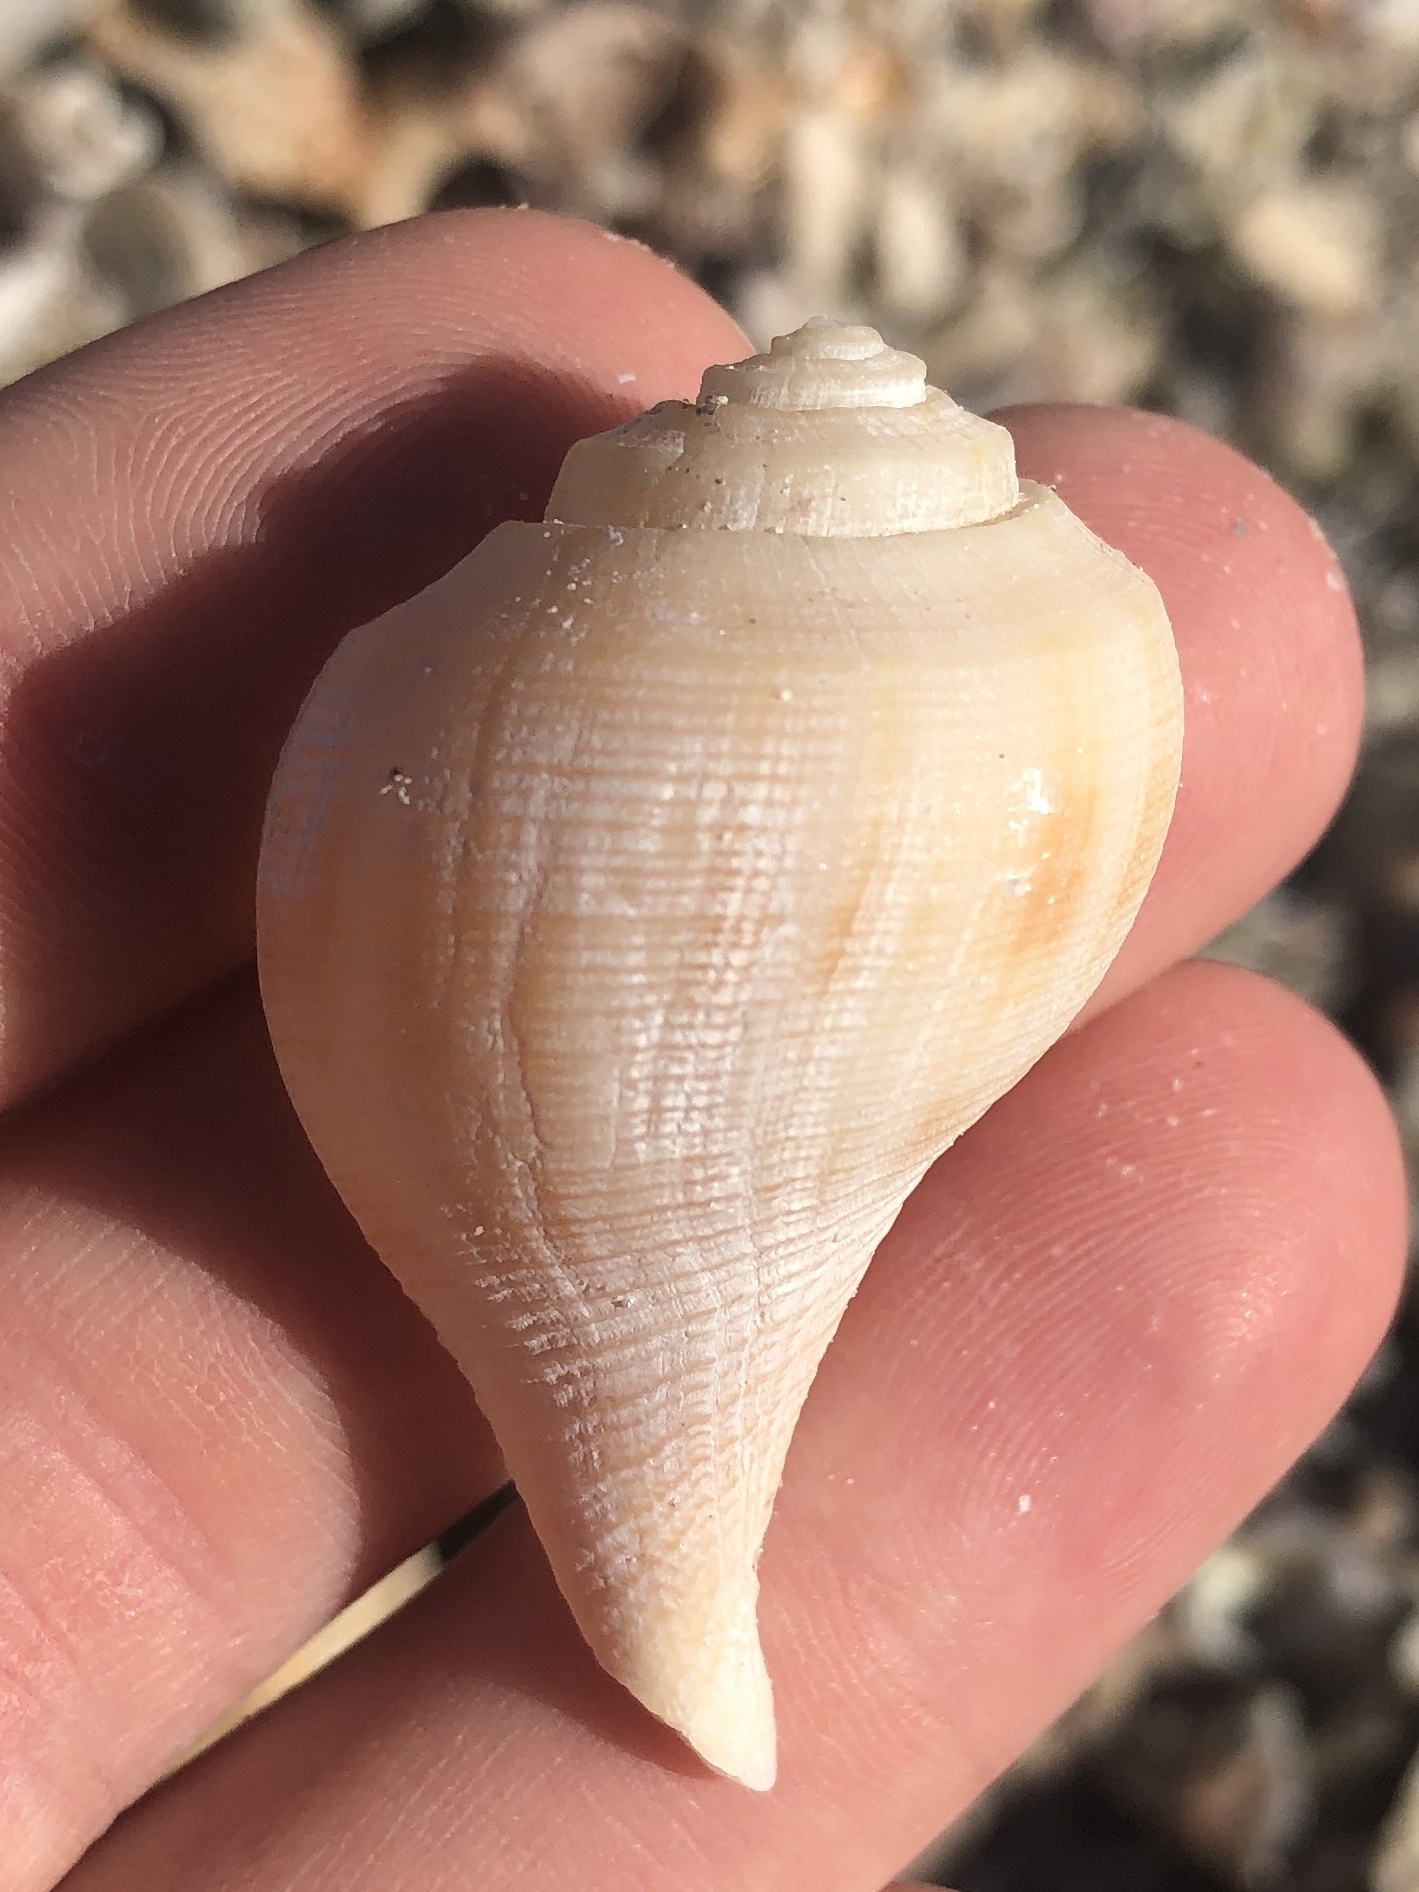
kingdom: Animalia
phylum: Mollusca
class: Gastropoda
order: Neogastropoda
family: Busyconidae
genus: Fulguropsis
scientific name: Fulguropsis pyruloides
